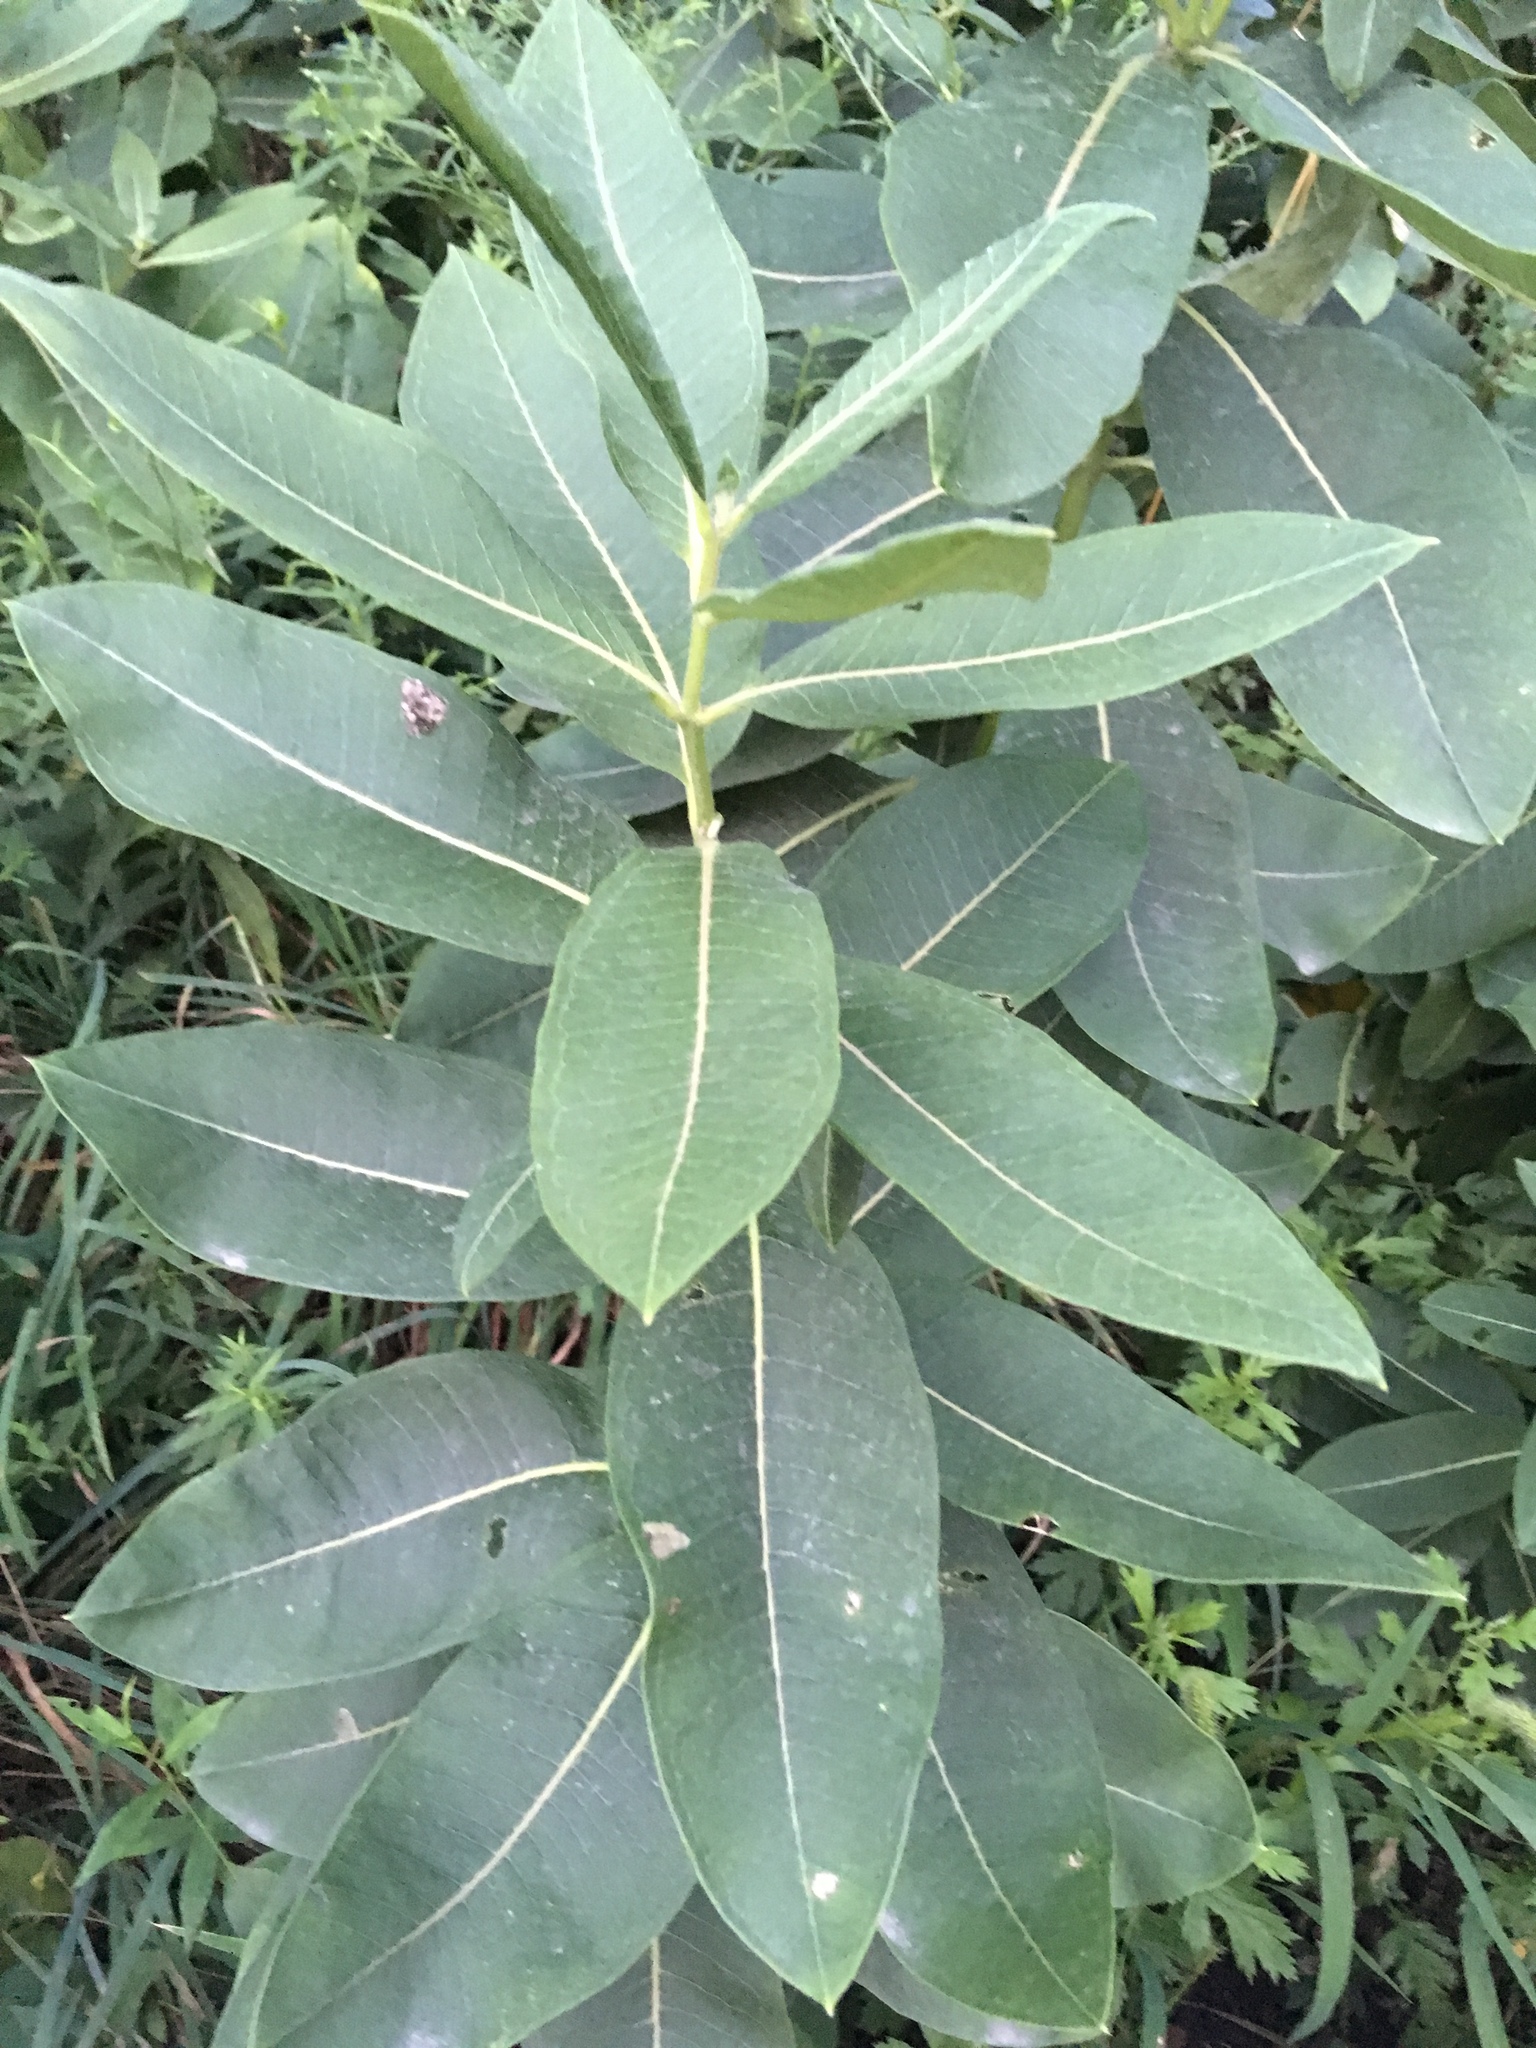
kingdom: Plantae
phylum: Tracheophyta
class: Magnoliopsida
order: Gentianales
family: Apocynaceae
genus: Asclepias
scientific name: Asclepias syriaca
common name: Common milkweed
